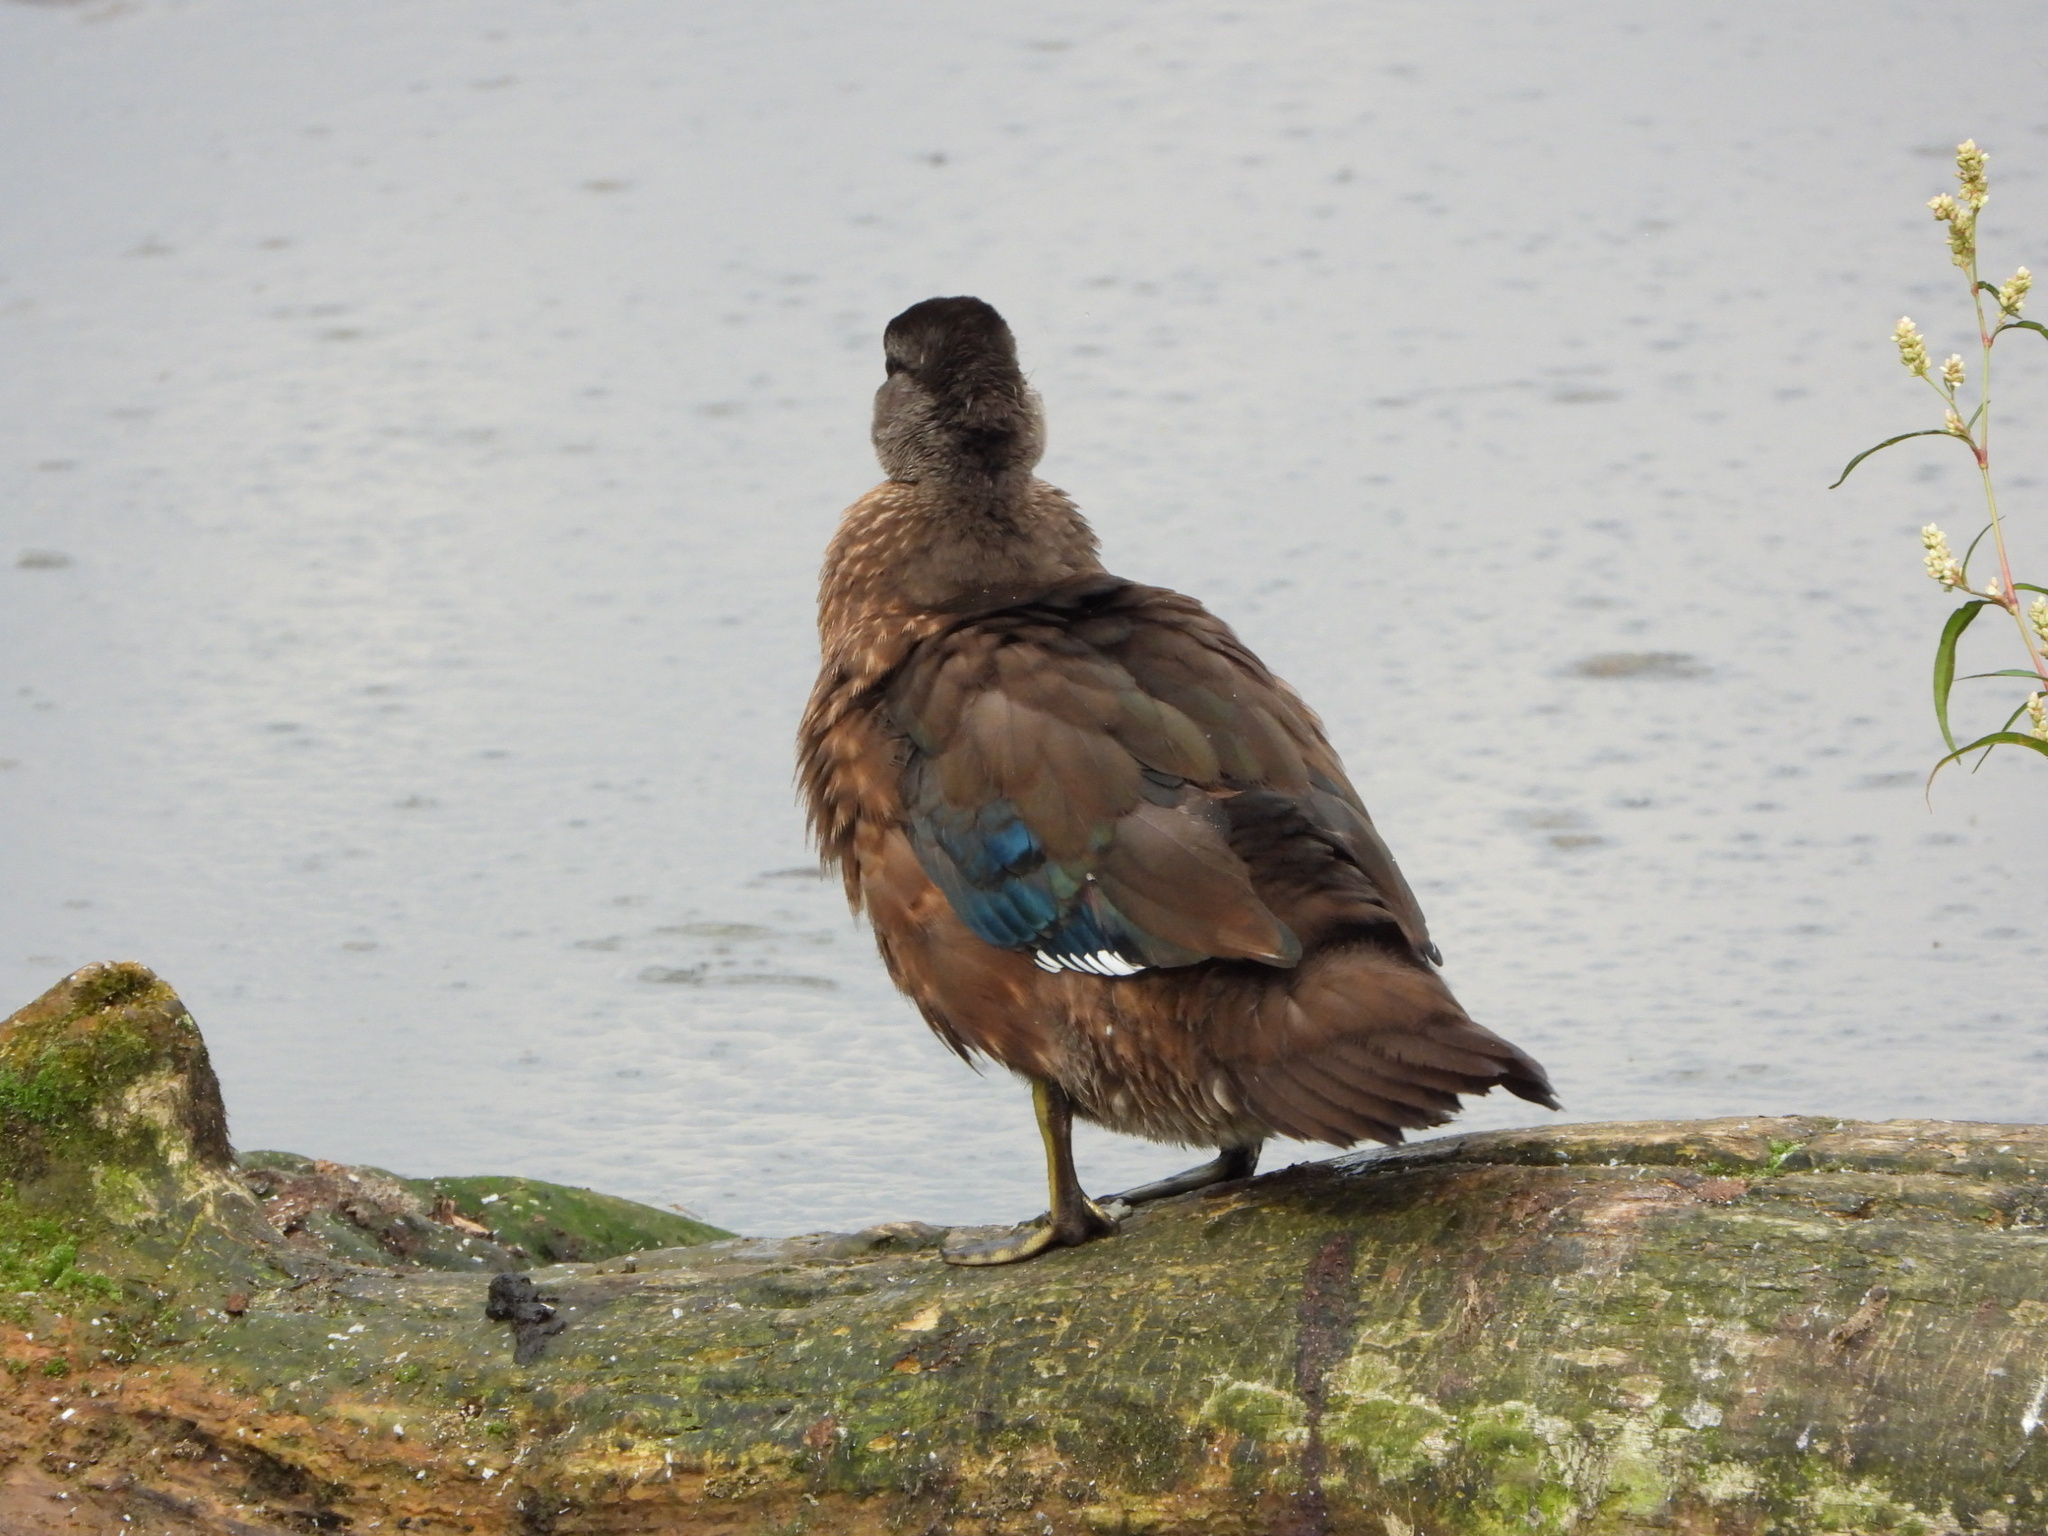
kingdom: Animalia
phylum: Chordata
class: Aves
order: Anseriformes
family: Anatidae
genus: Aix
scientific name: Aix sponsa
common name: Wood duck
